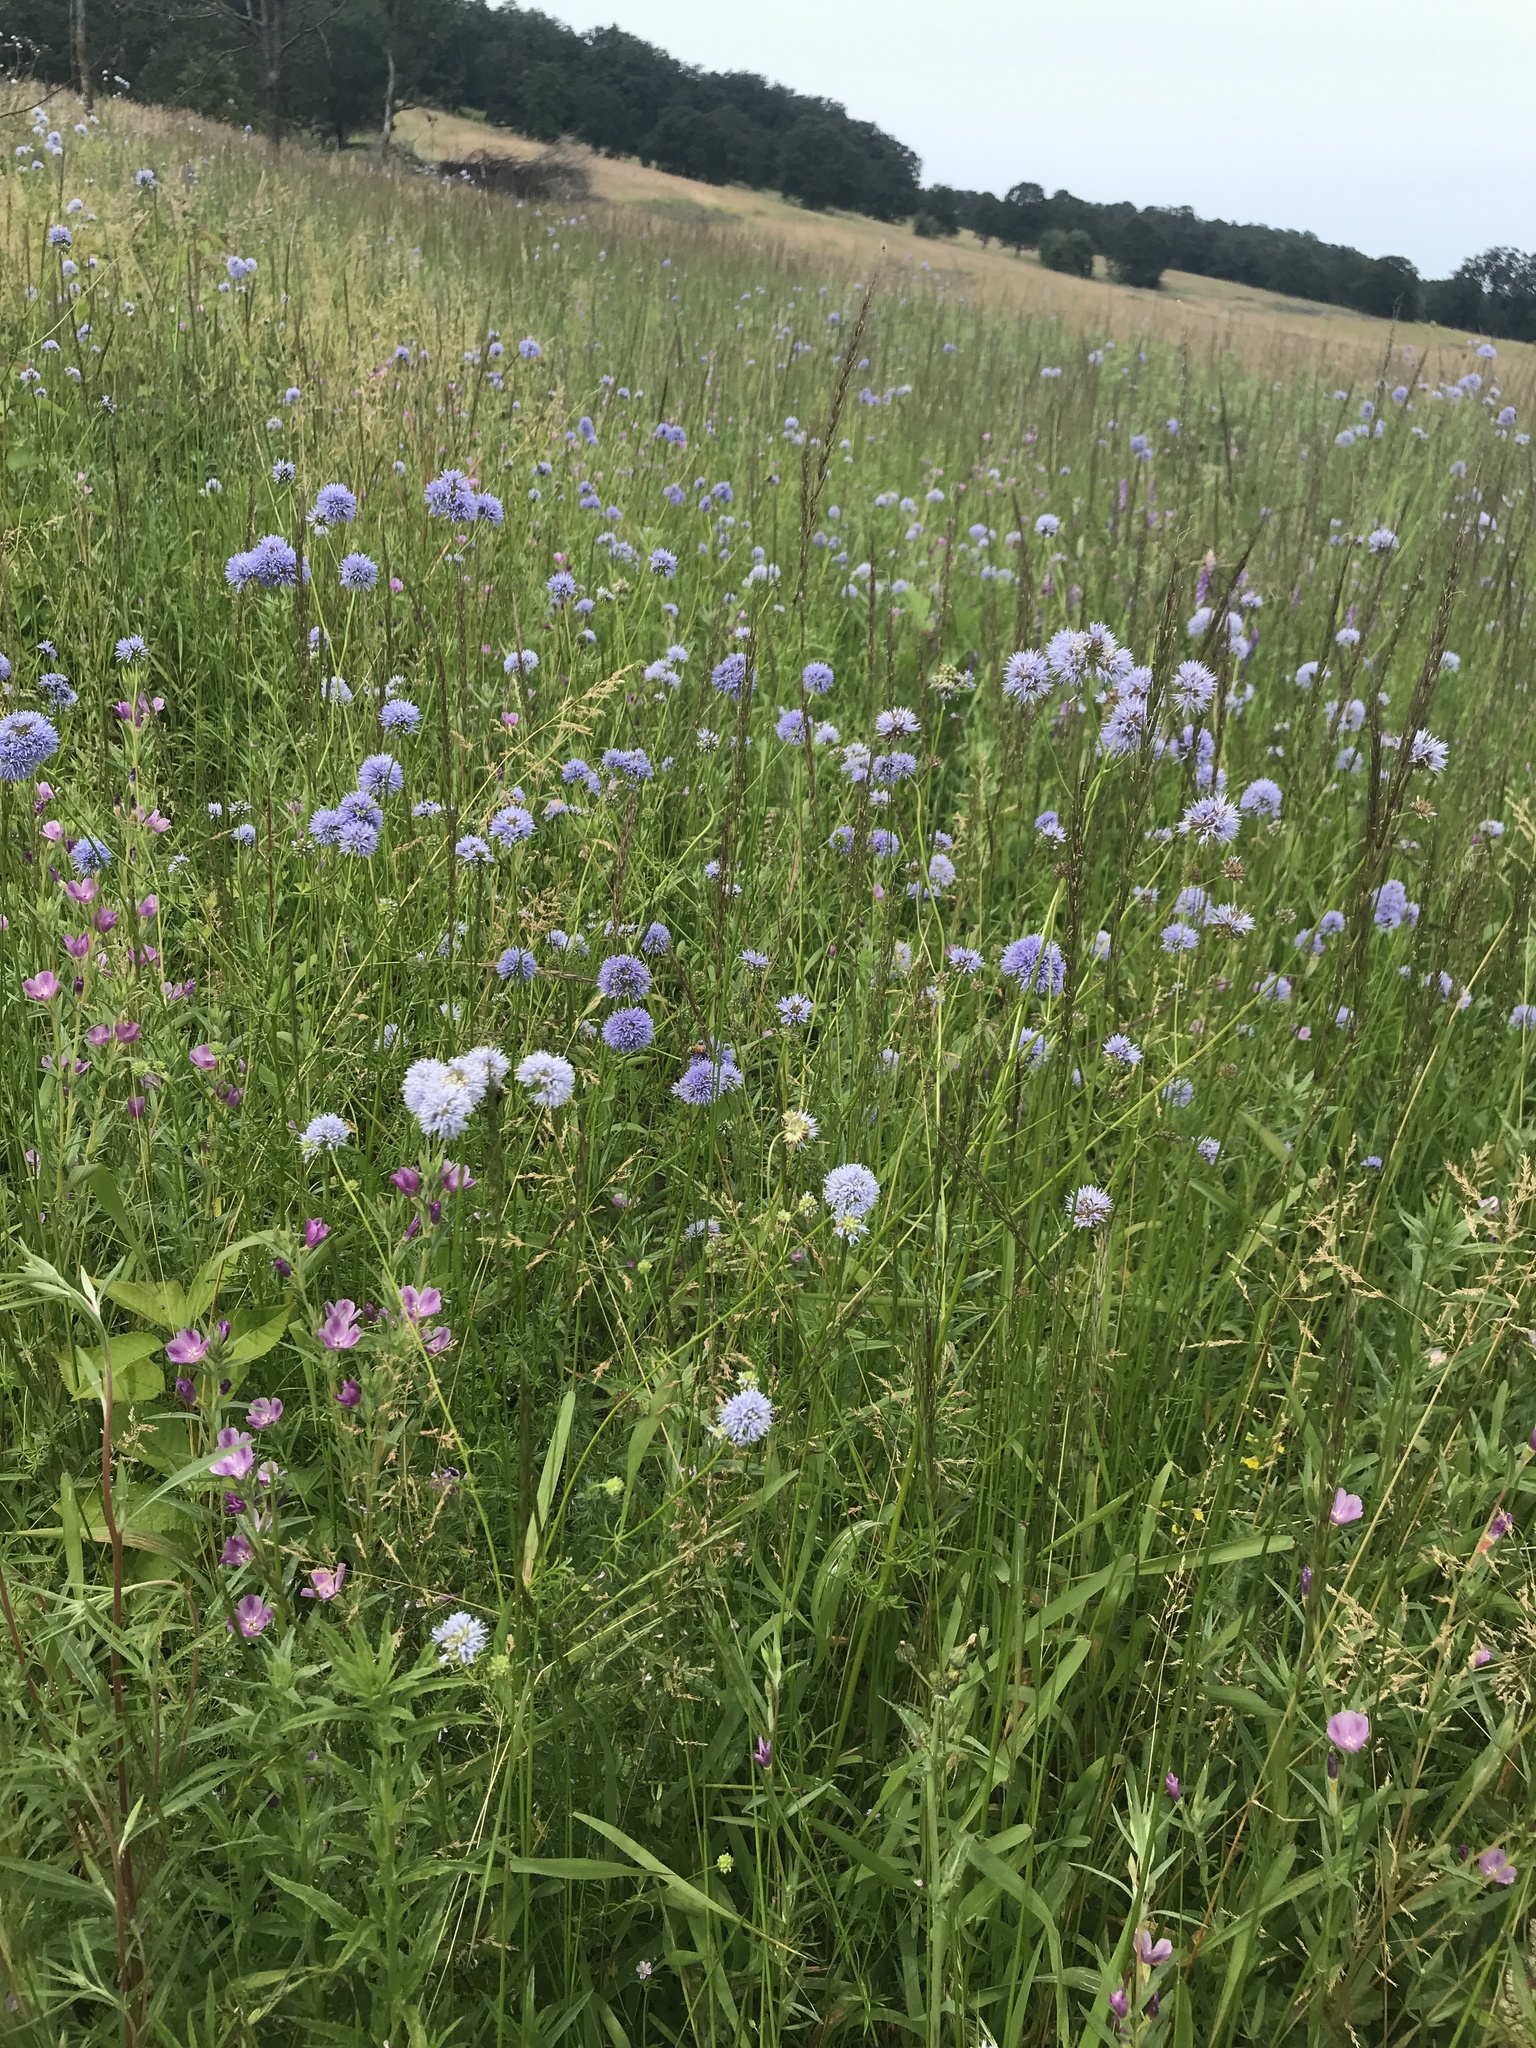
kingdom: Plantae
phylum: Tracheophyta
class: Magnoliopsida
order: Ericales
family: Polemoniaceae
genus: Gilia
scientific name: Gilia capitata
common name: Bluehead gilia
